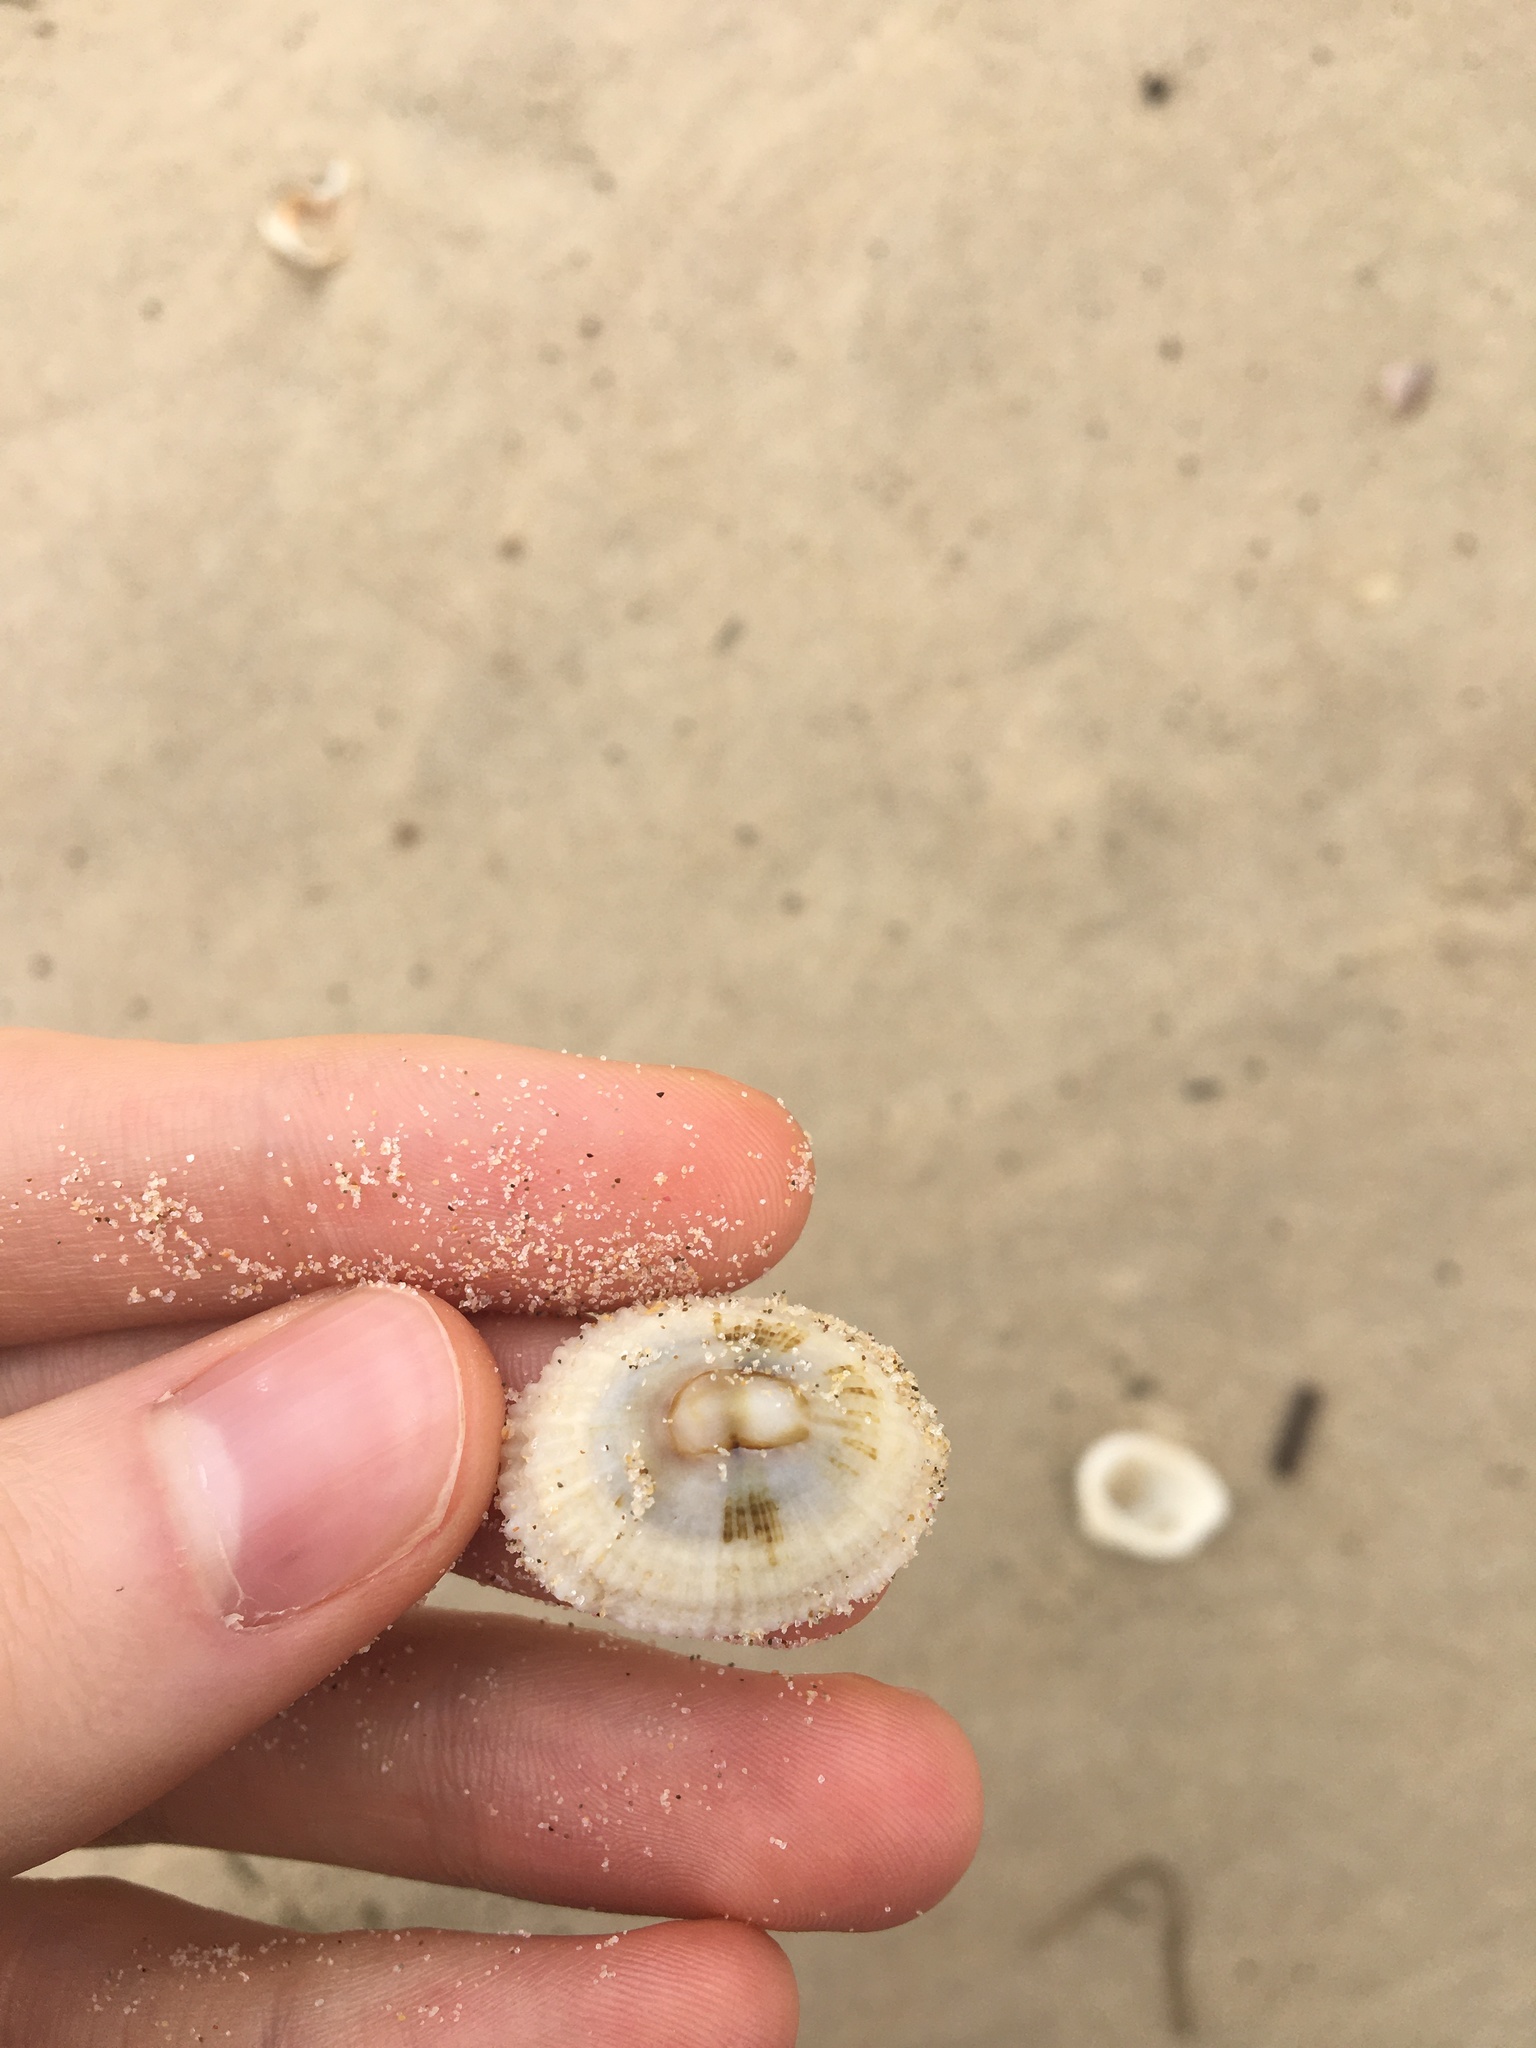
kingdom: Animalia
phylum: Mollusca
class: Gastropoda
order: Lepetellida
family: Fissurellidae
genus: Montfortula
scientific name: Montfortula rugosa
